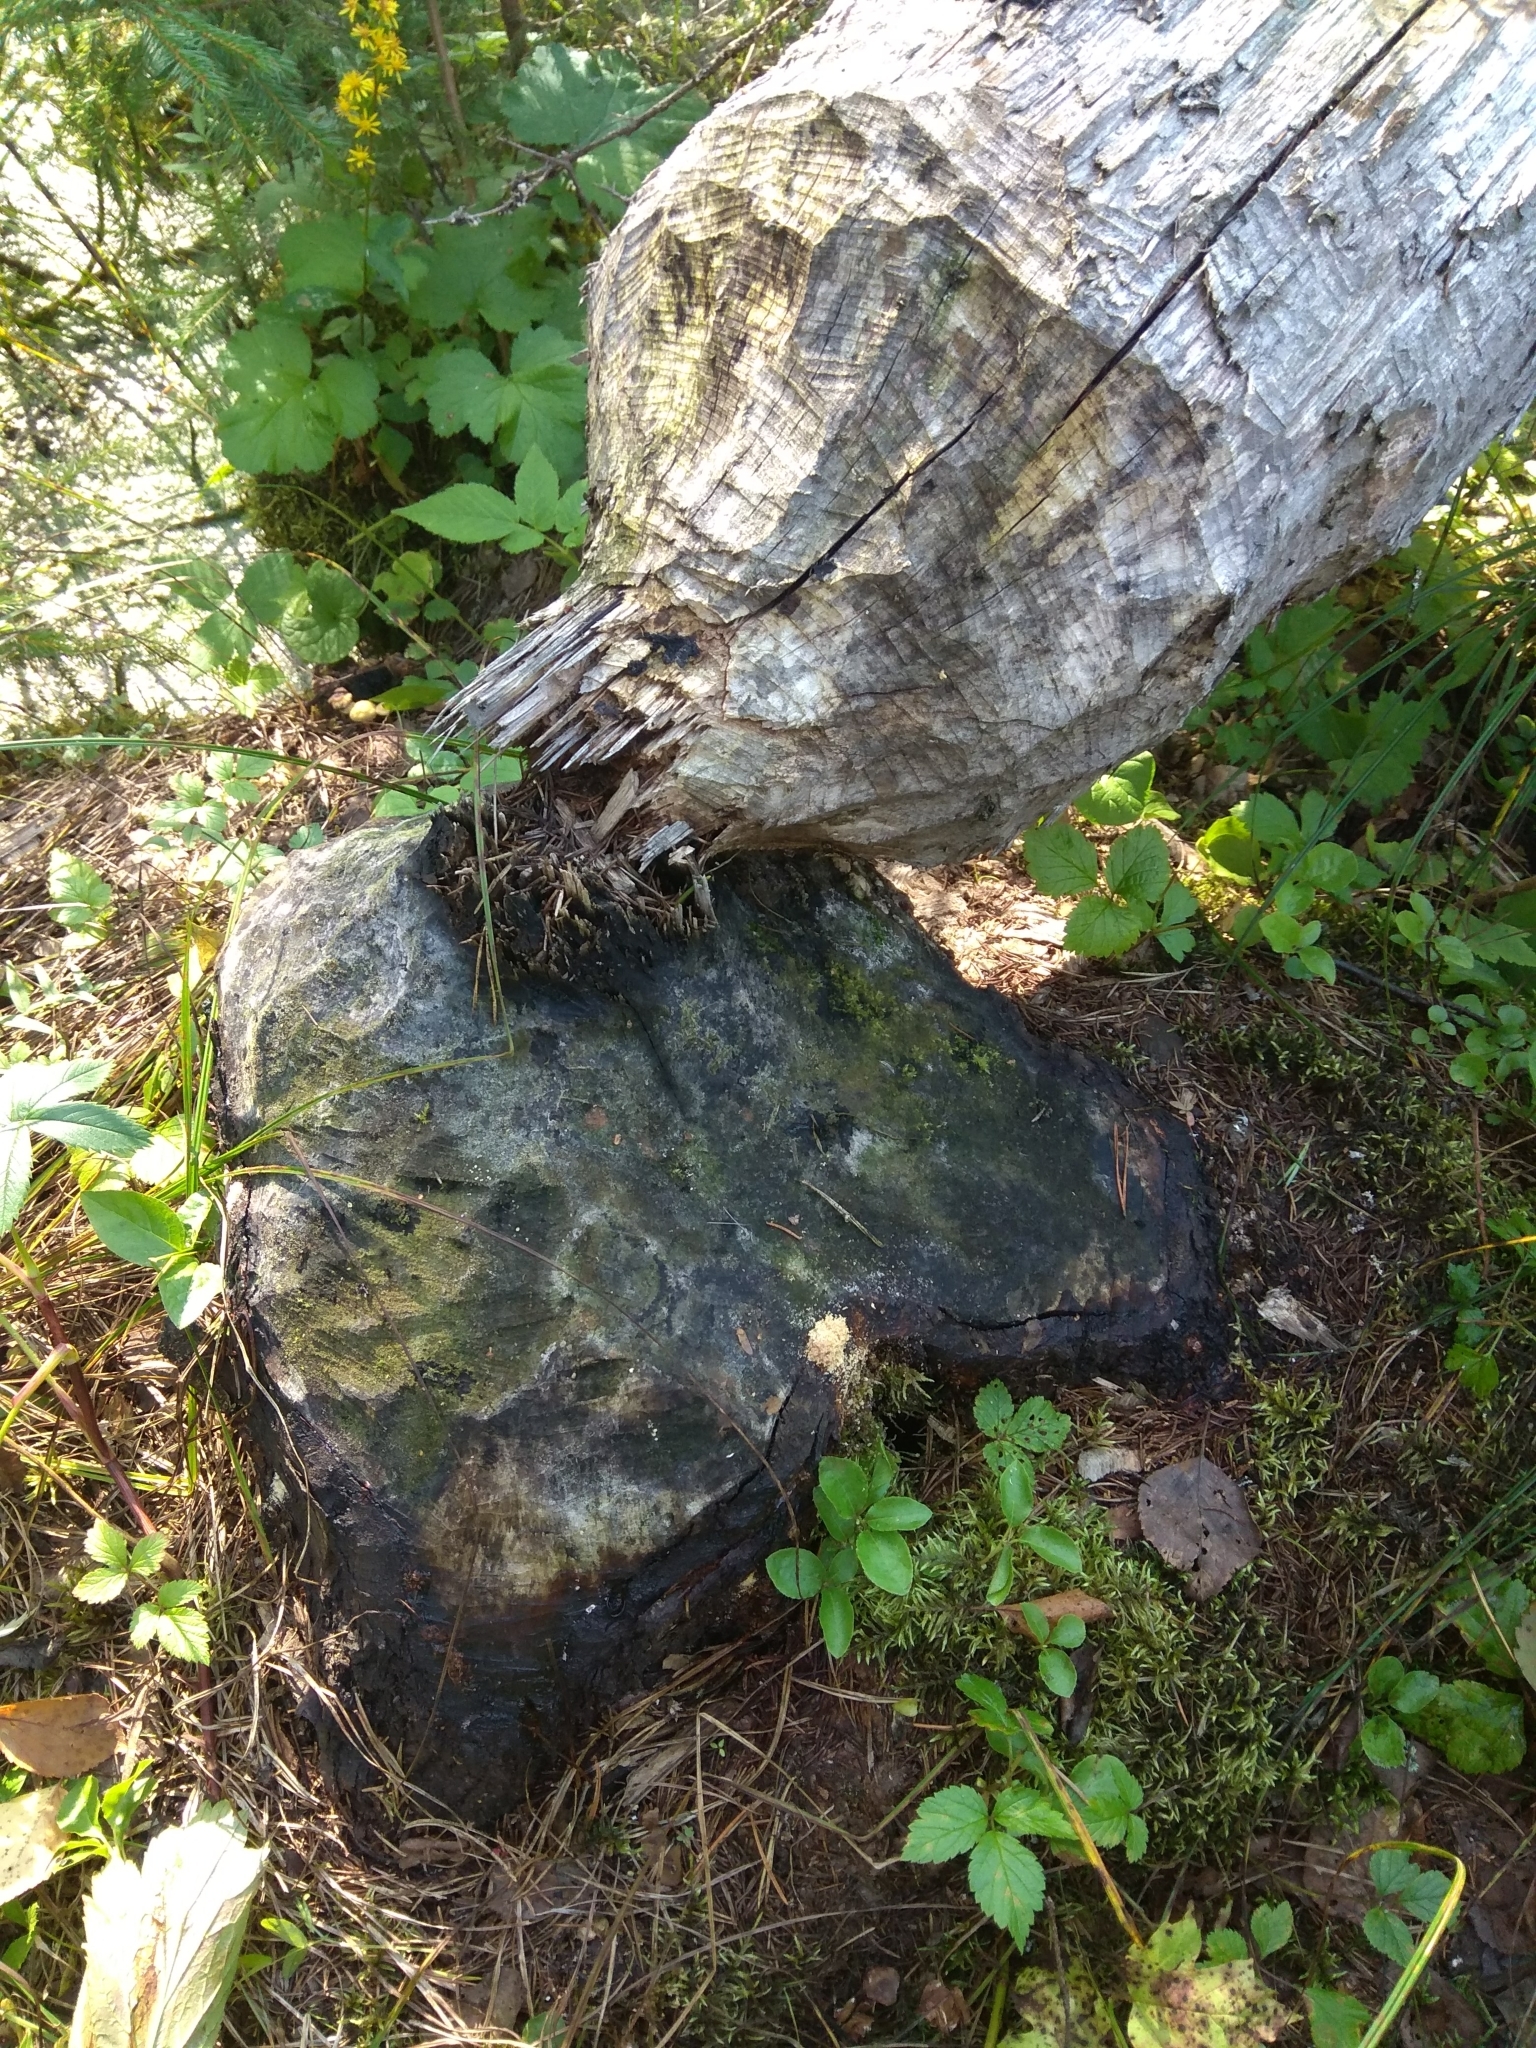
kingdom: Animalia
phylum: Chordata
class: Mammalia
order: Rodentia
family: Castoridae
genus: Castor
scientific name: Castor fiber
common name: Eurasian beaver
